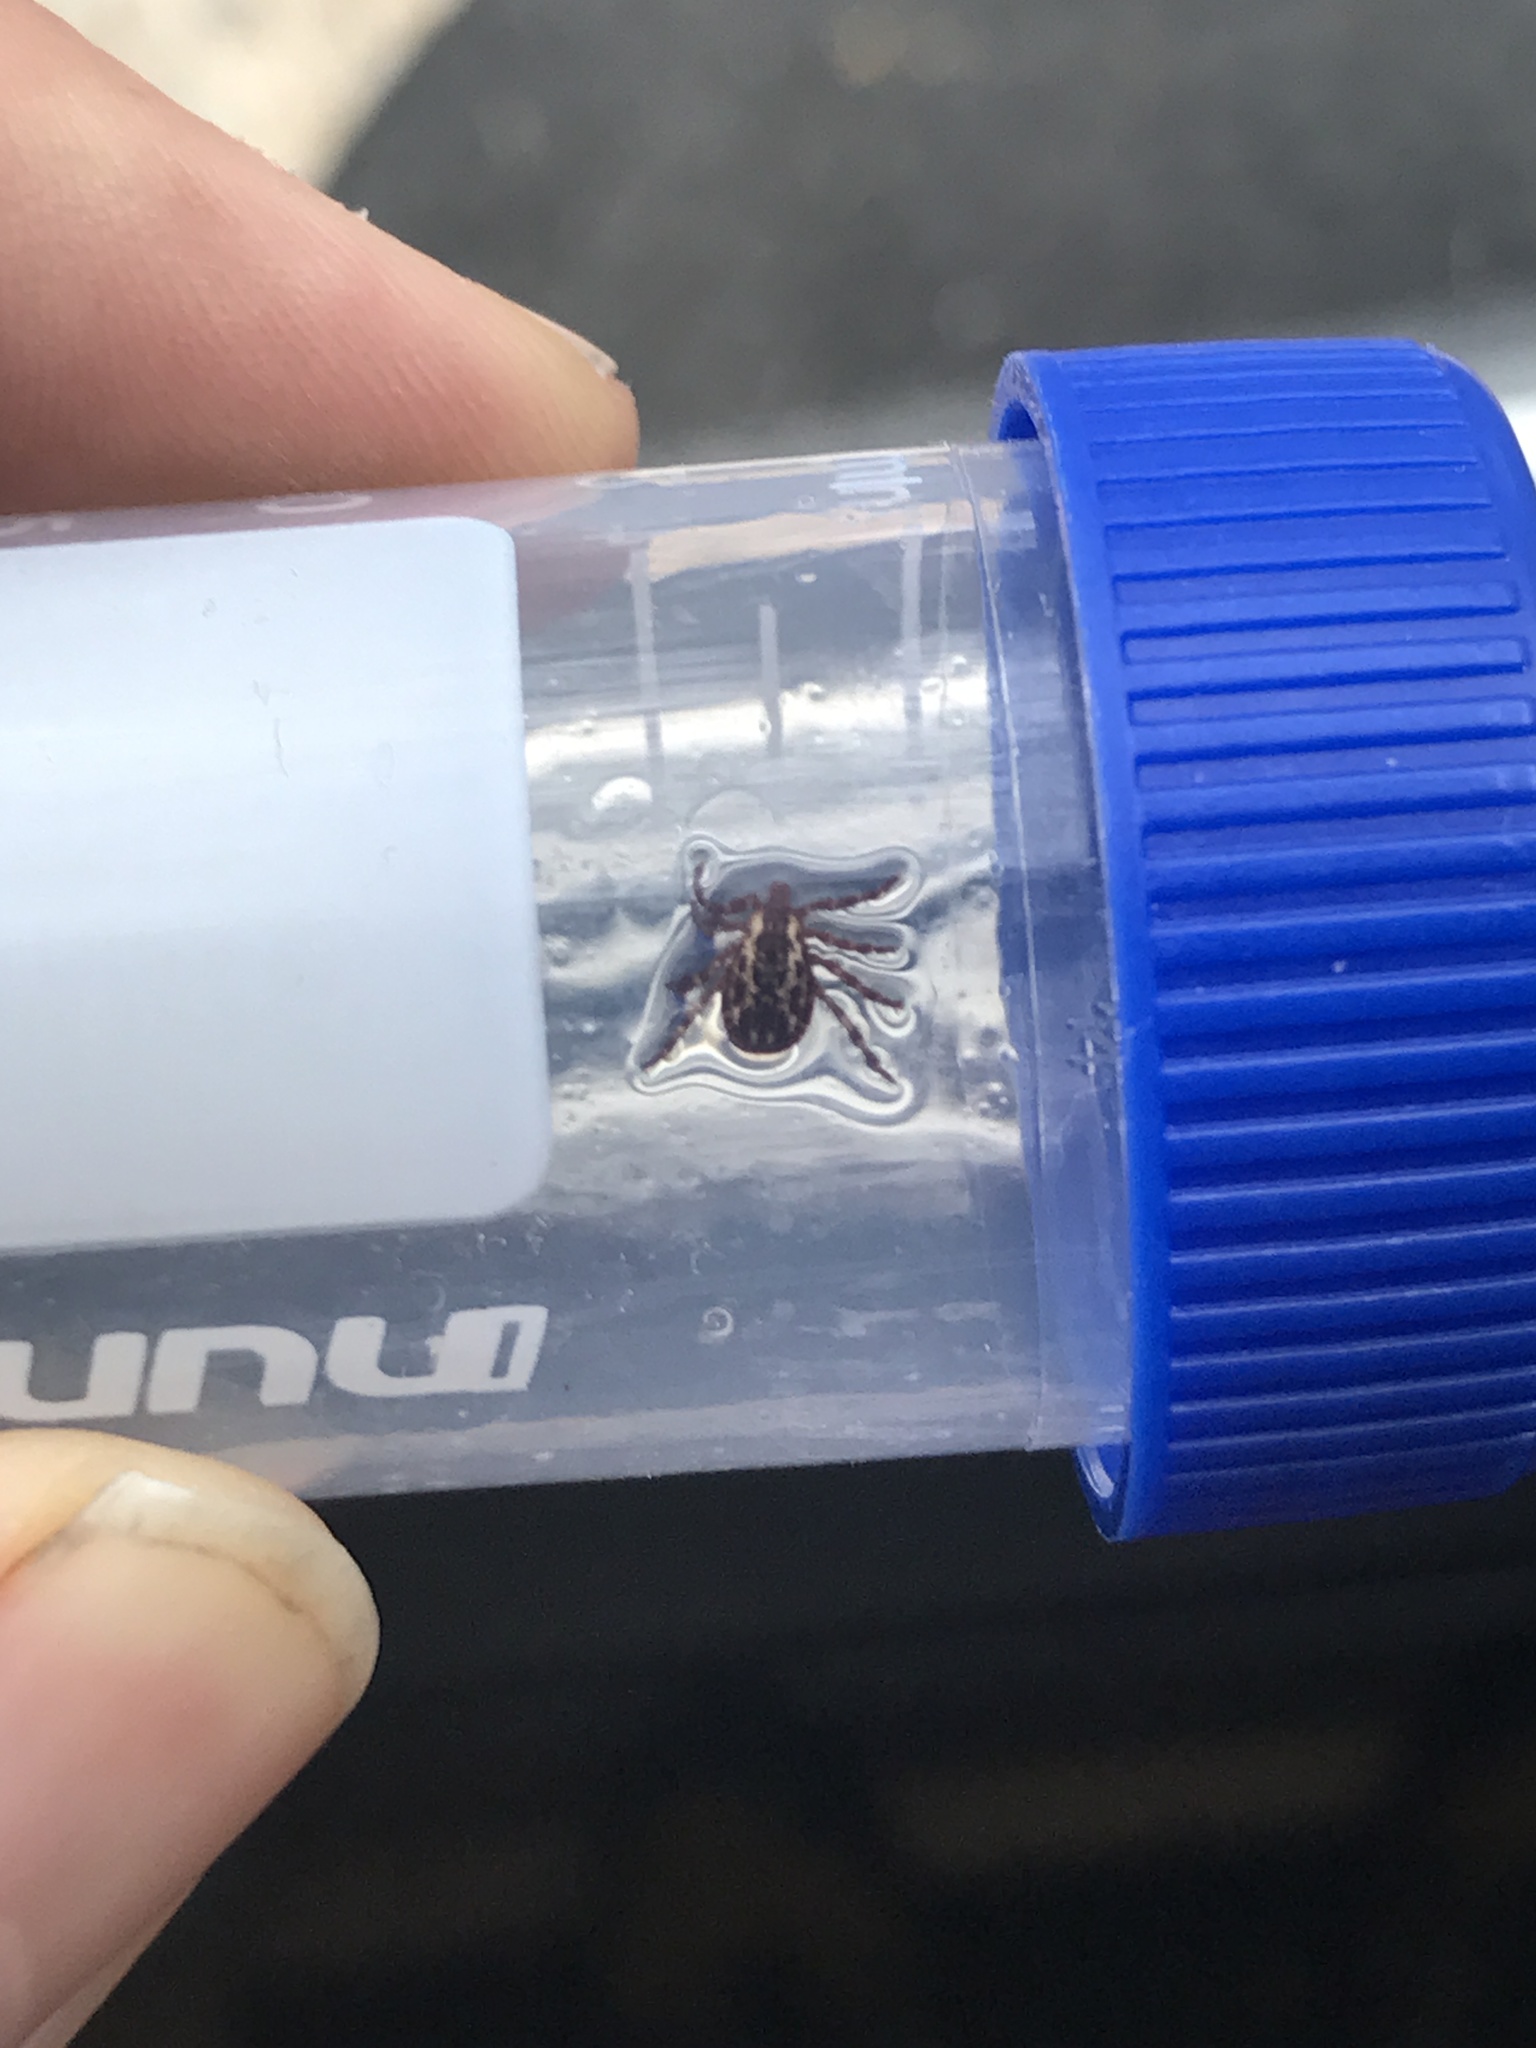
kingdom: Animalia
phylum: Arthropoda
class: Arachnida
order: Ixodida
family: Ixodidae
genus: Dermacentor
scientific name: Dermacentor variabilis
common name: American dog tick
